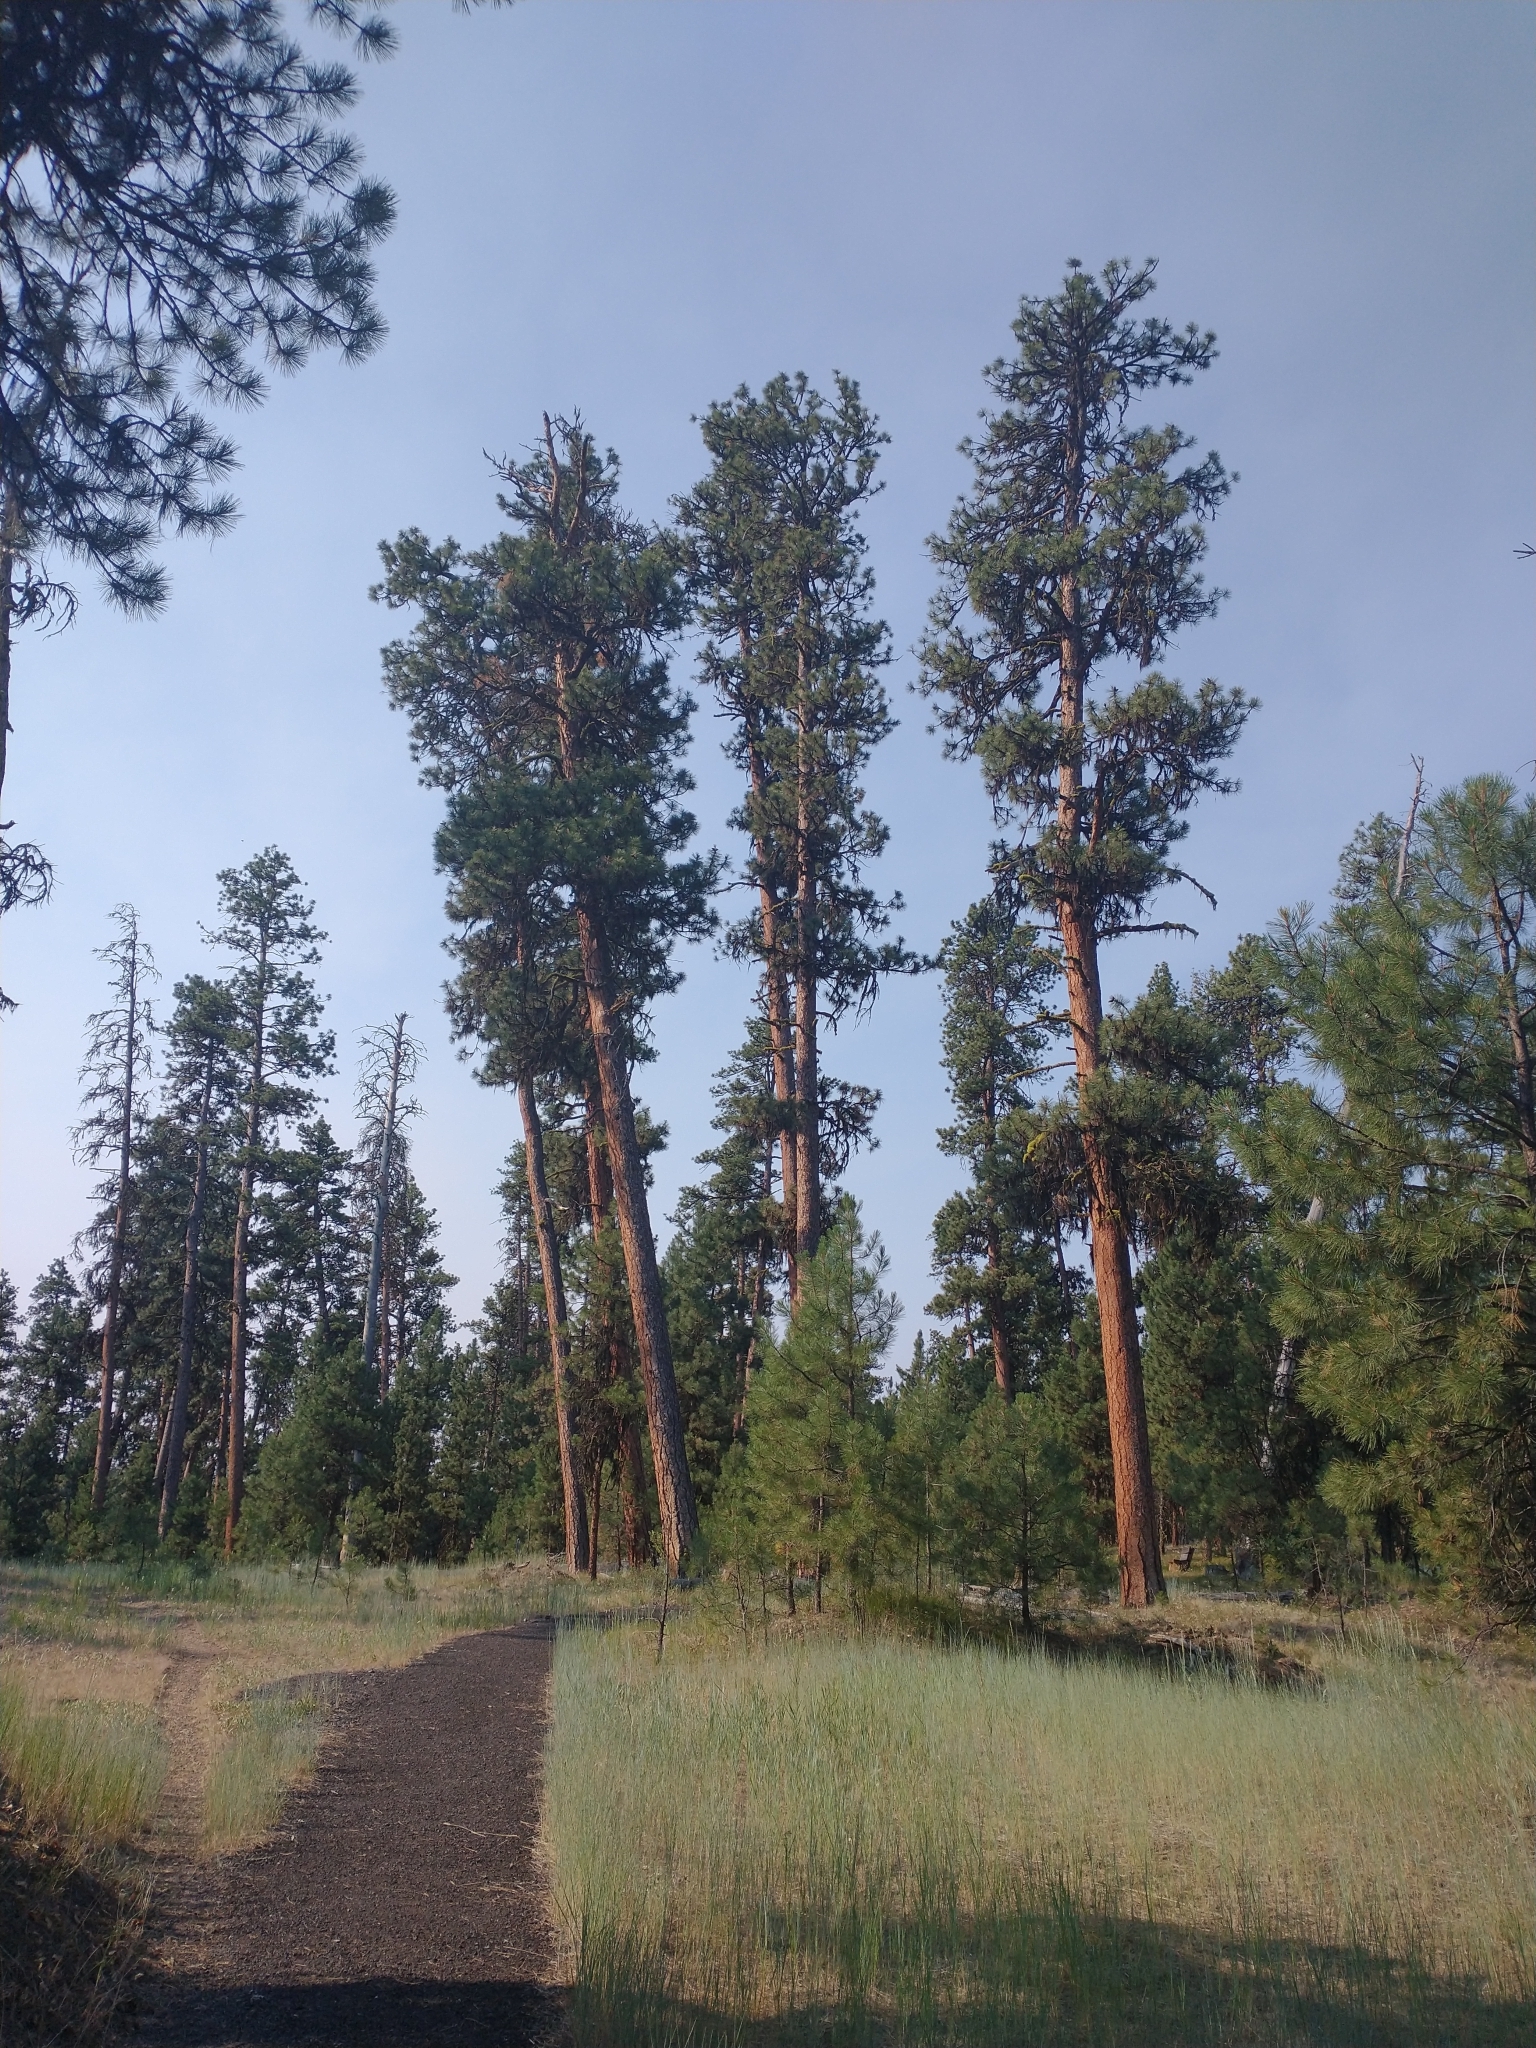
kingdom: Plantae
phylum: Tracheophyta
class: Pinopsida
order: Pinales
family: Pinaceae
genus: Pinus
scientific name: Pinus ponderosa
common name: Western yellow-pine
